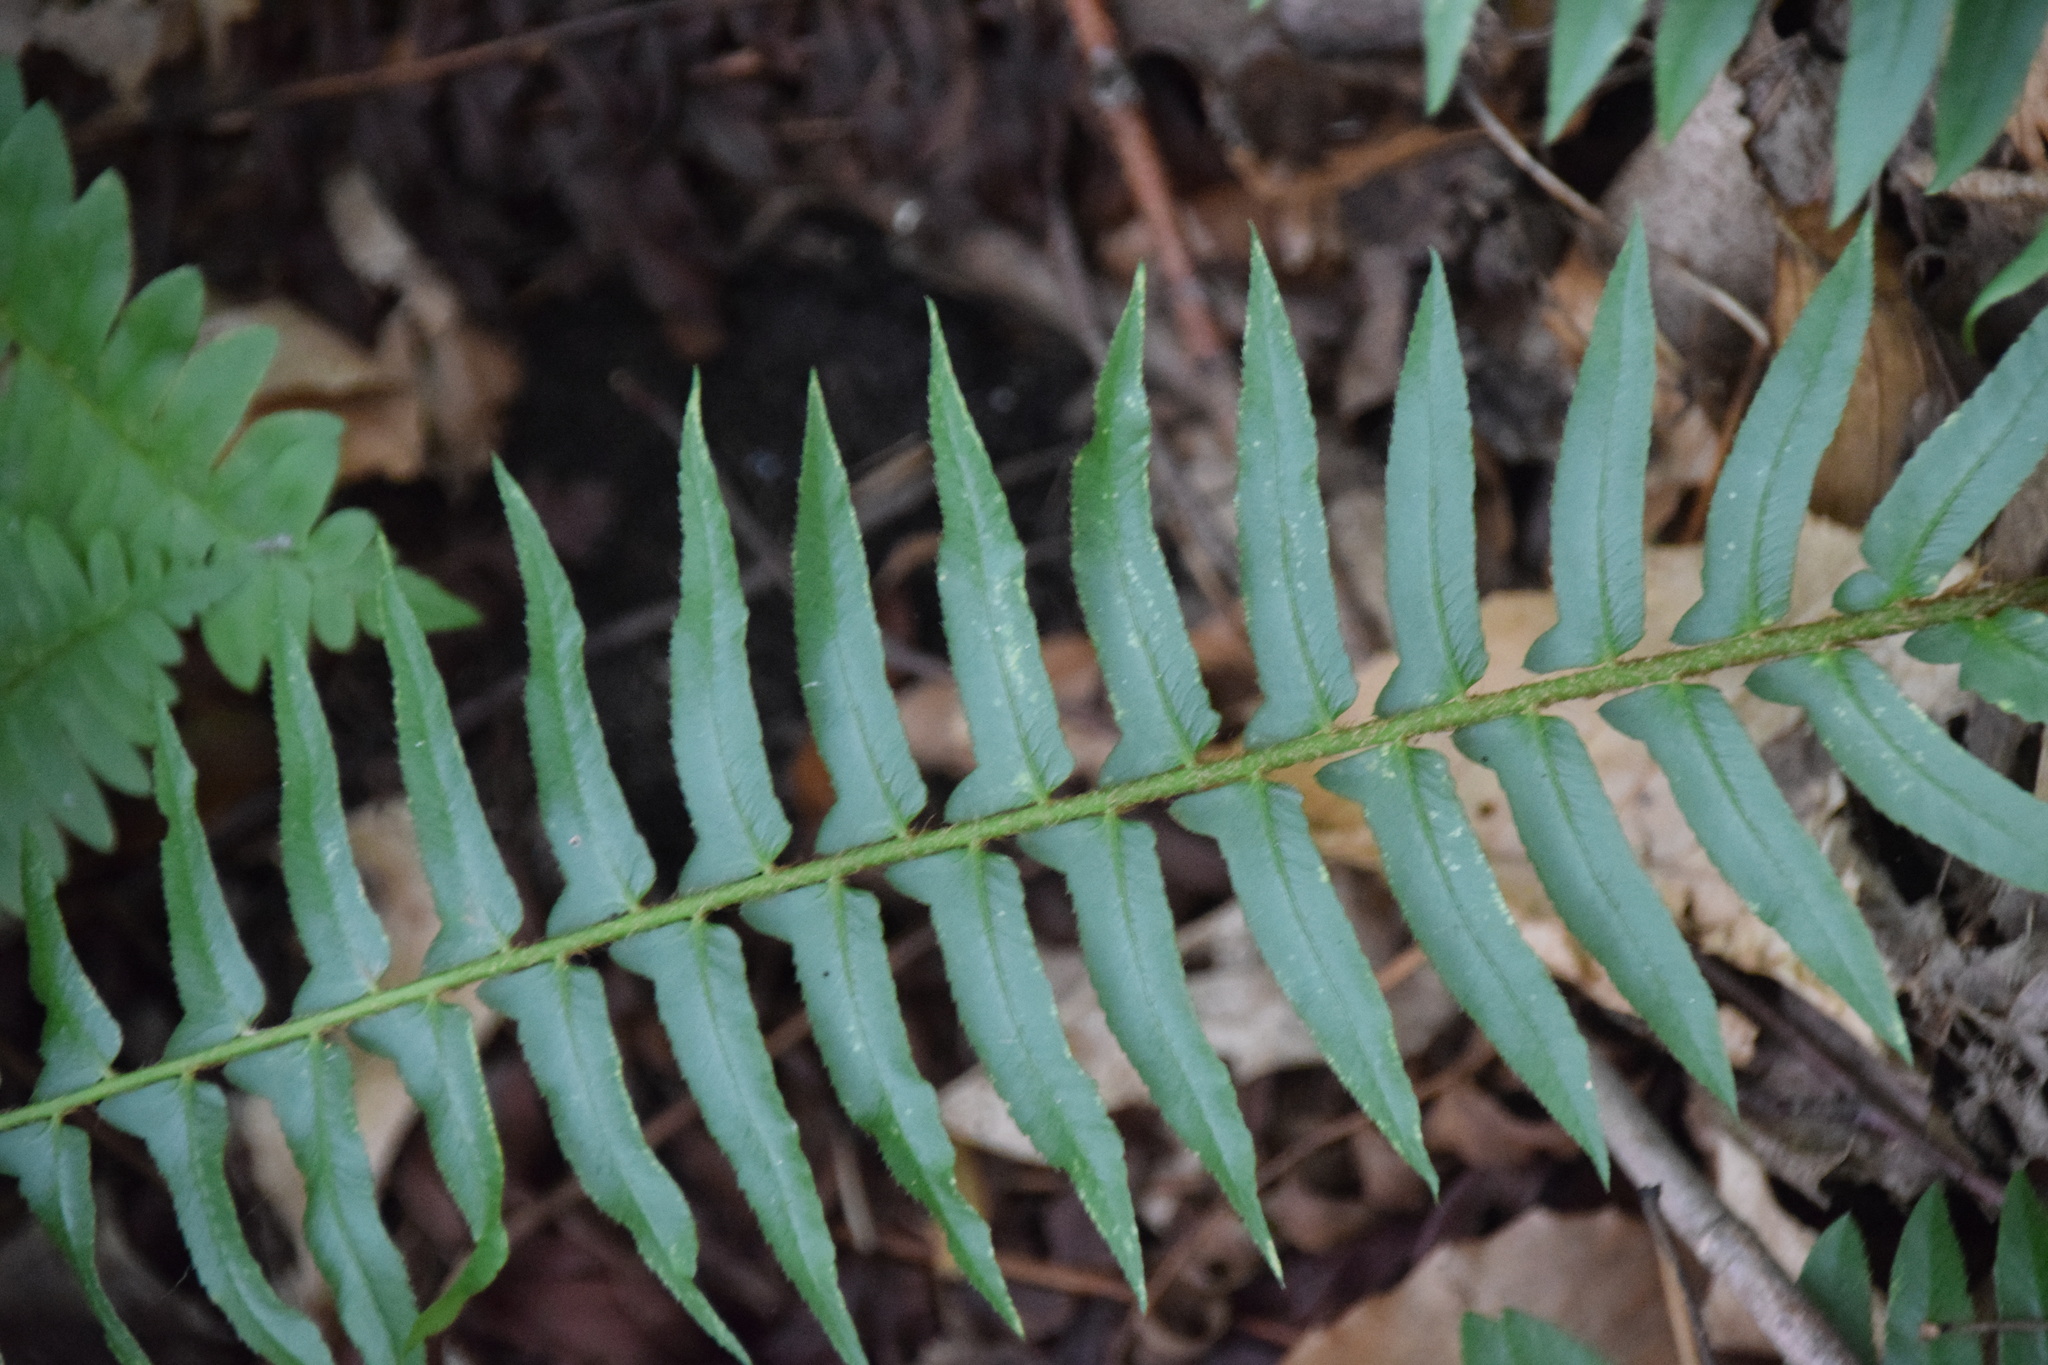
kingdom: Plantae
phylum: Tracheophyta
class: Polypodiopsida
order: Polypodiales
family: Dryopteridaceae
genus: Polystichum
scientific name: Polystichum acrostichoides
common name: Christmas fern
